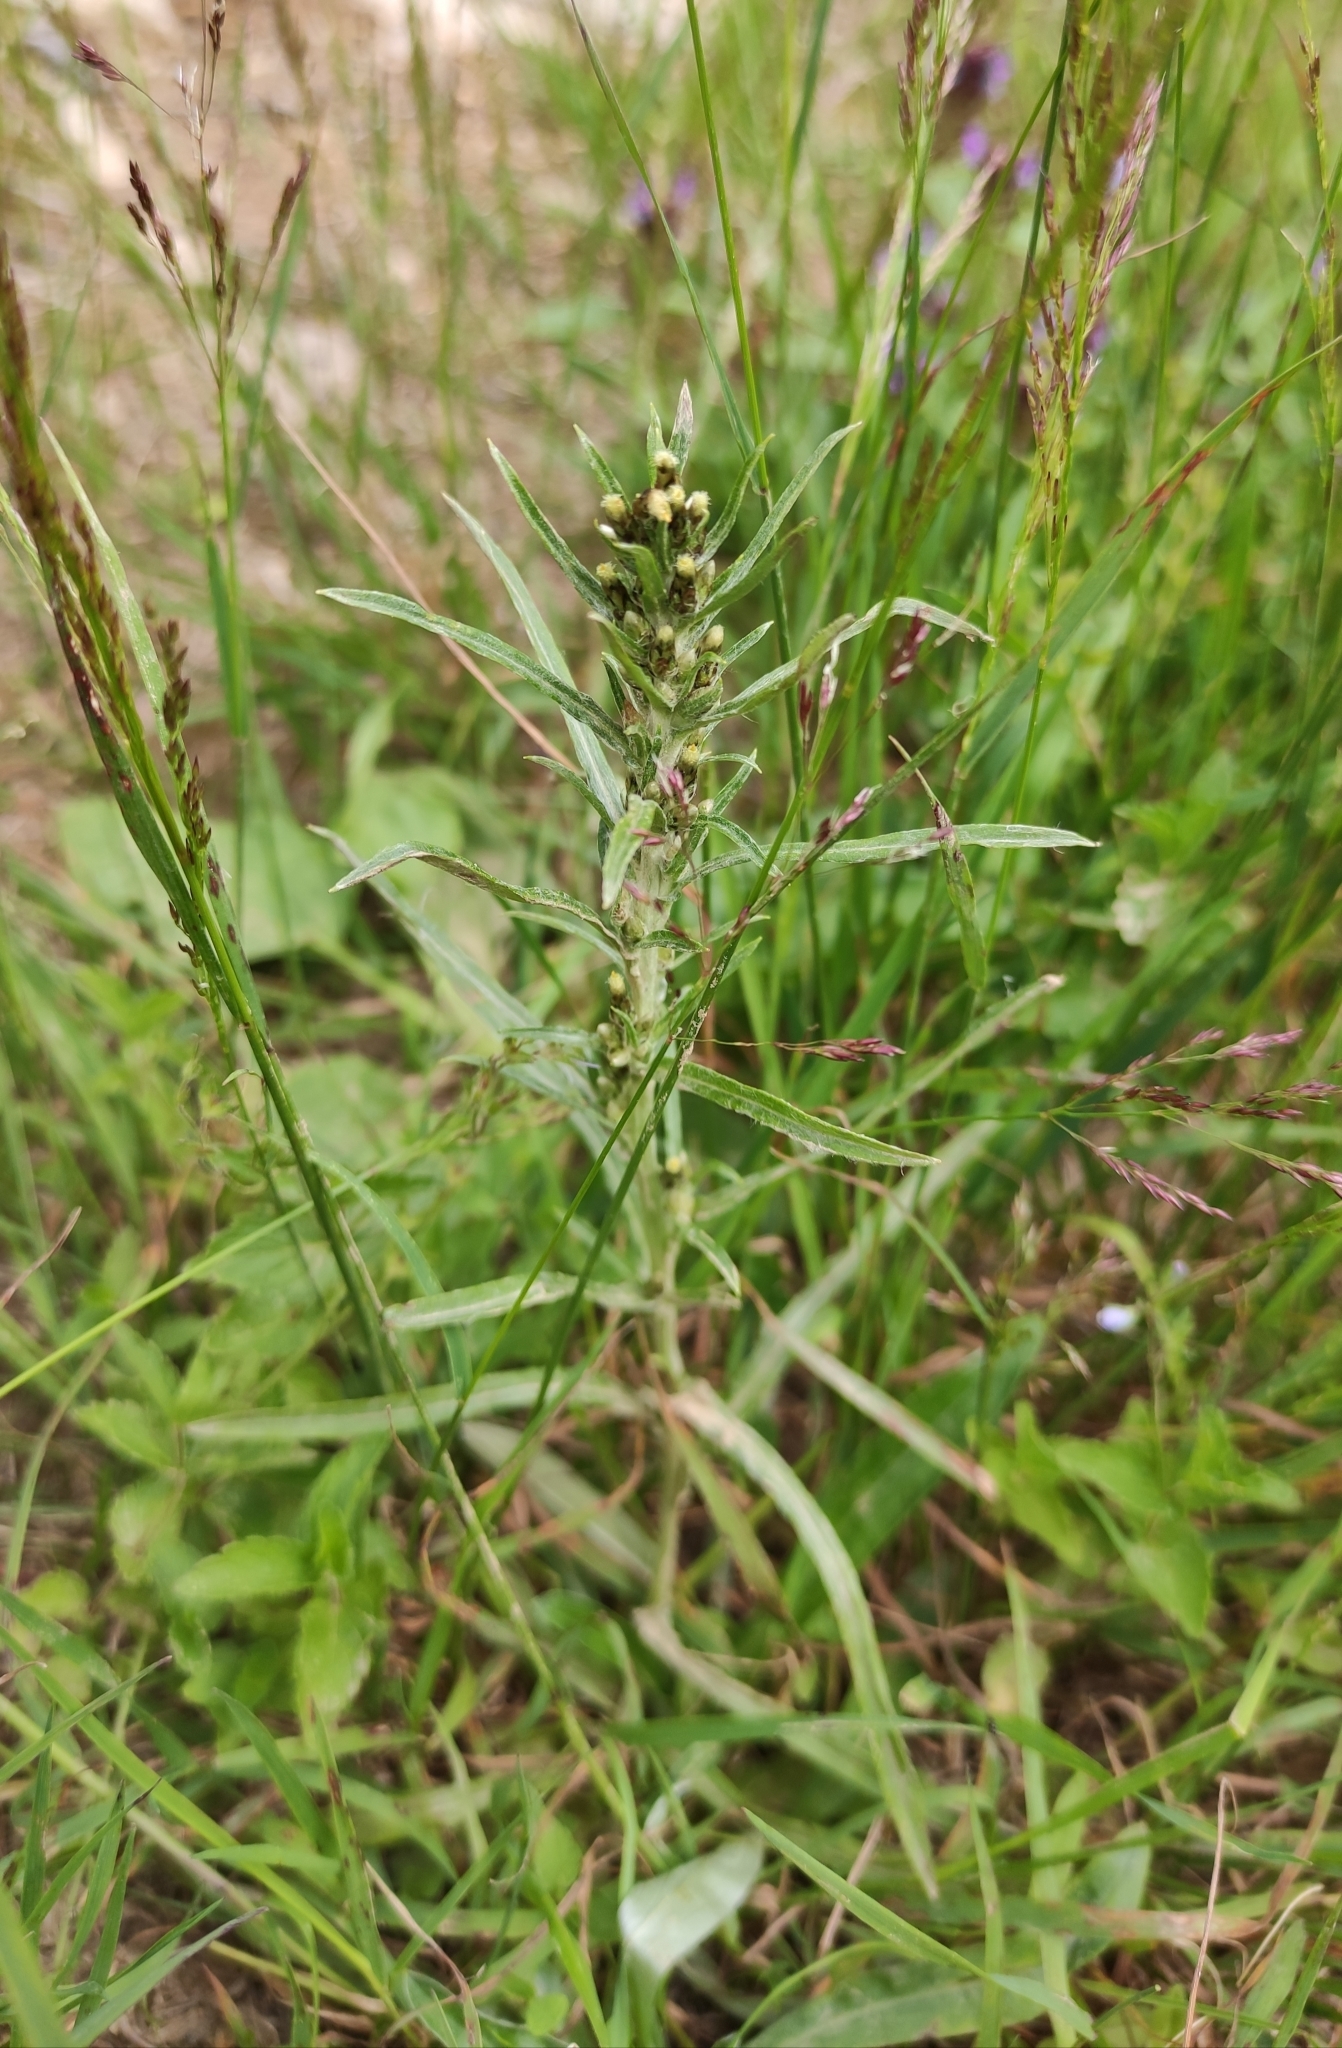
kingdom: Plantae
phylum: Tracheophyta
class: Magnoliopsida
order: Asterales
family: Asteraceae
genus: Omalotheca
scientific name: Omalotheca sylvatica
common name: Heath cudweed
